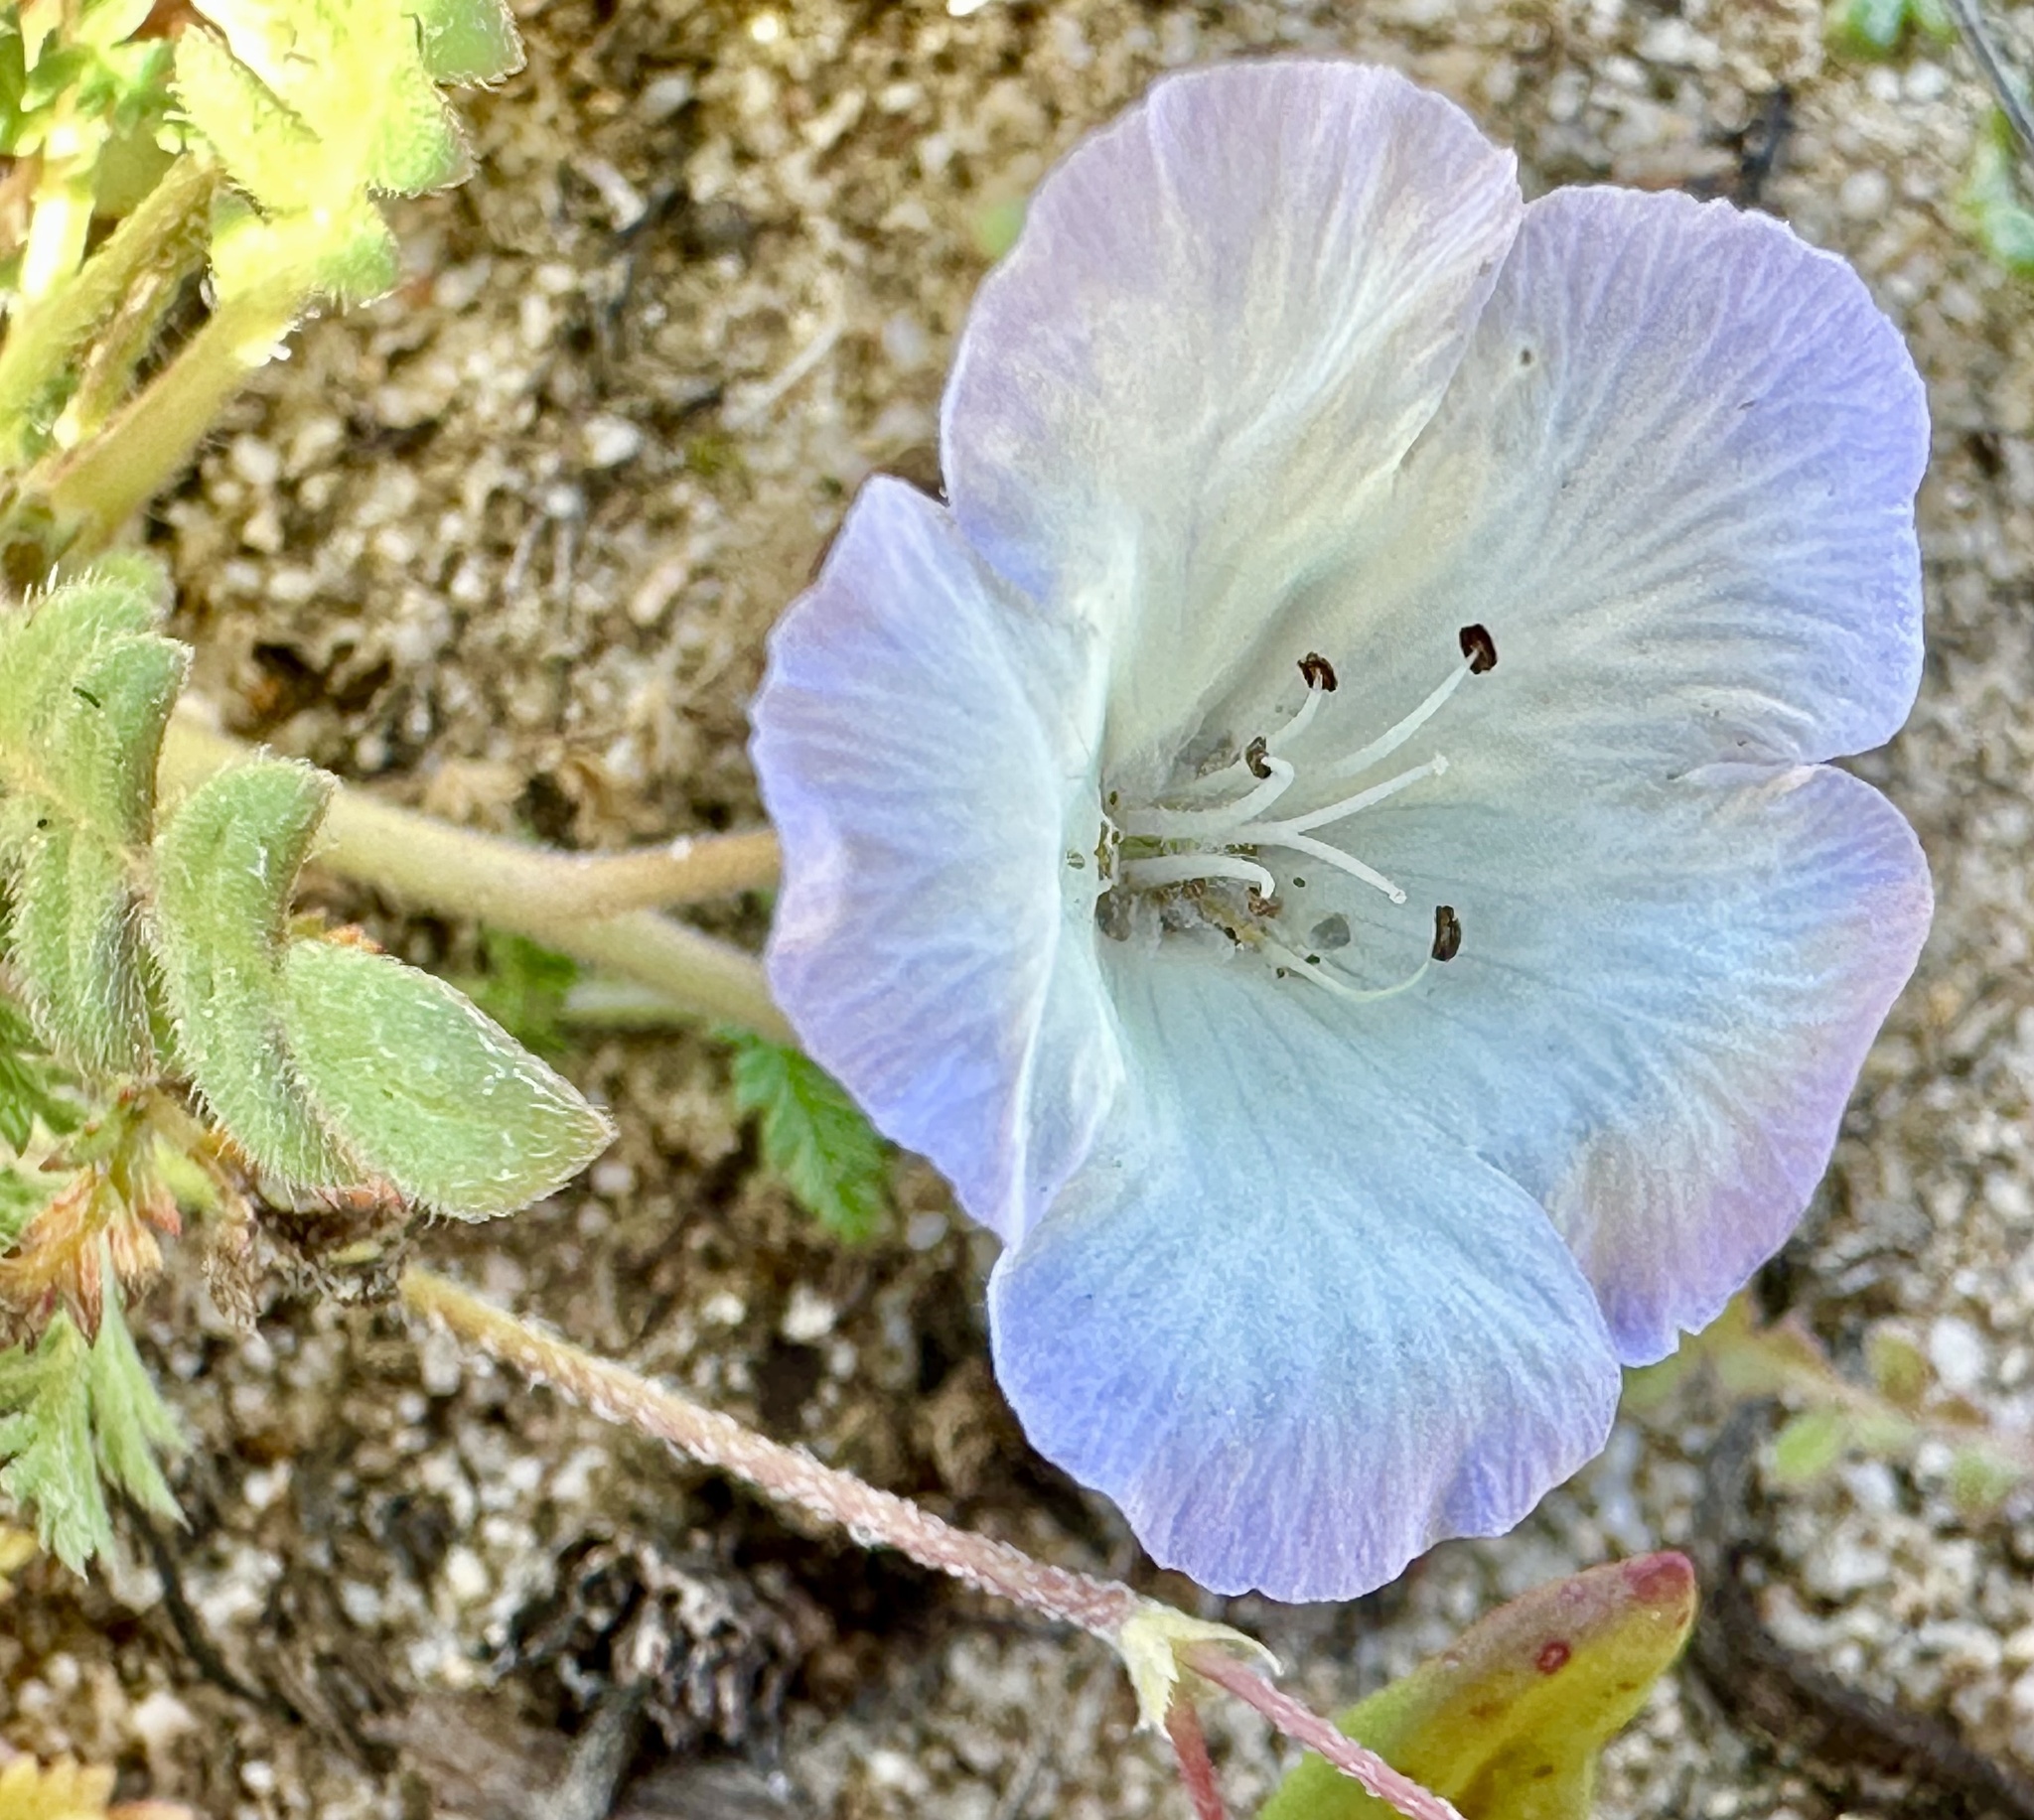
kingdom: Plantae
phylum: Tracheophyta
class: Magnoliopsida
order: Boraginales
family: Hydrophyllaceae
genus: Phacelia
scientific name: Phacelia douglasii
